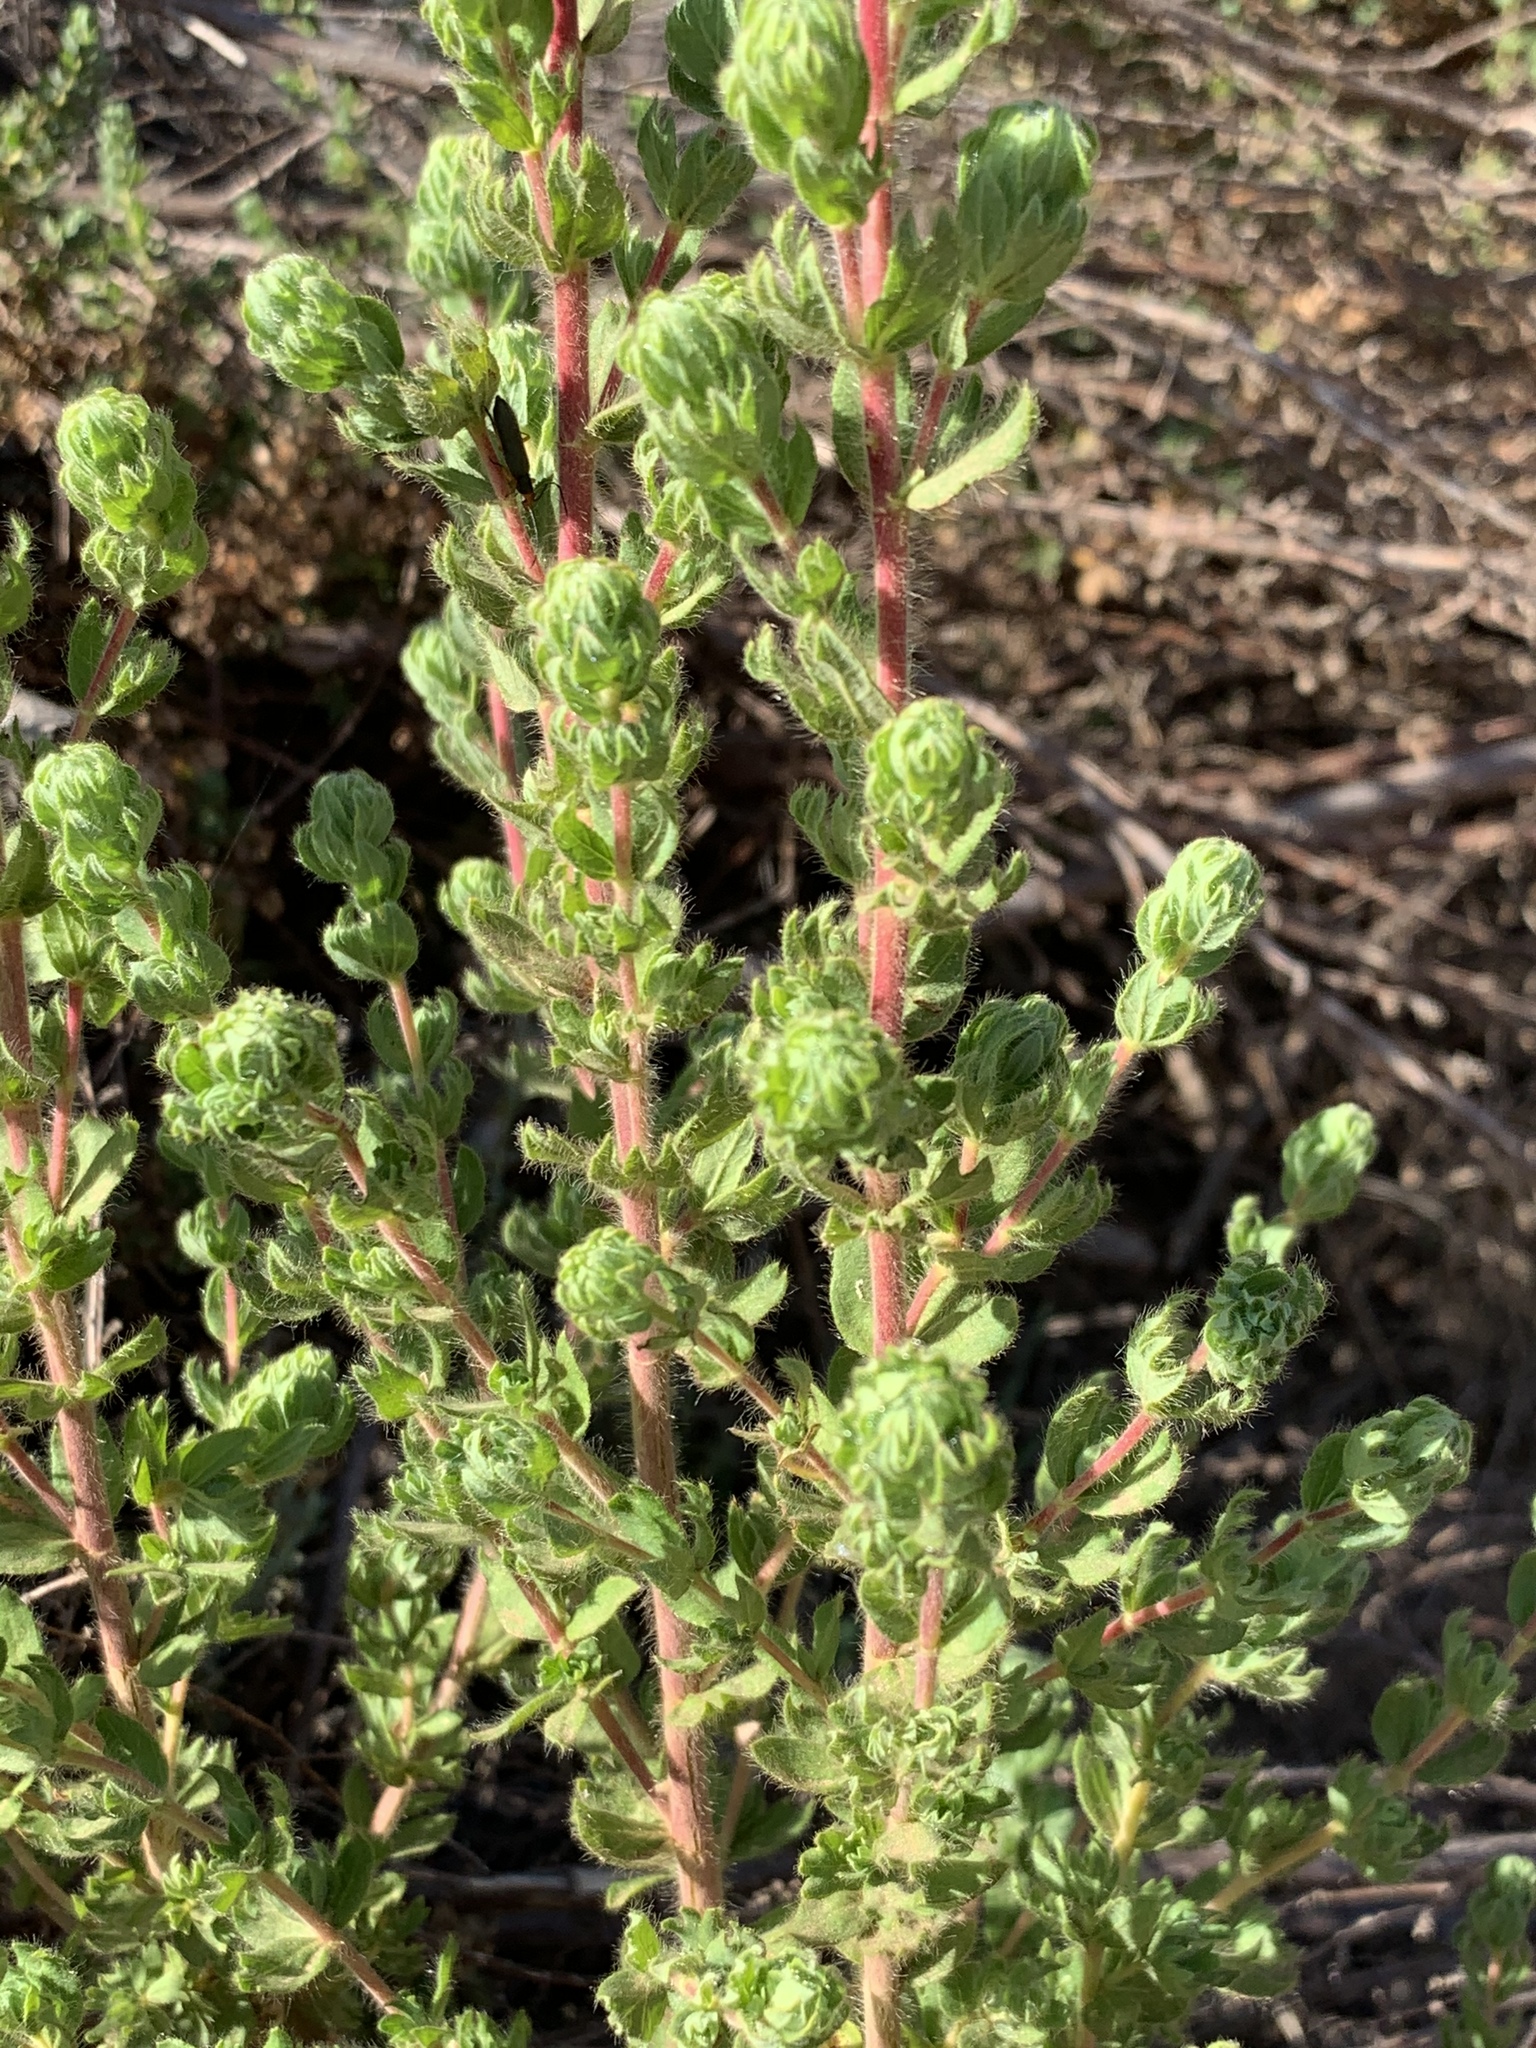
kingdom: Plantae
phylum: Tracheophyta
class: Magnoliopsida
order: Rosales
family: Rosaceae
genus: Cliffortia
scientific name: Cliffortia polygonifolia
